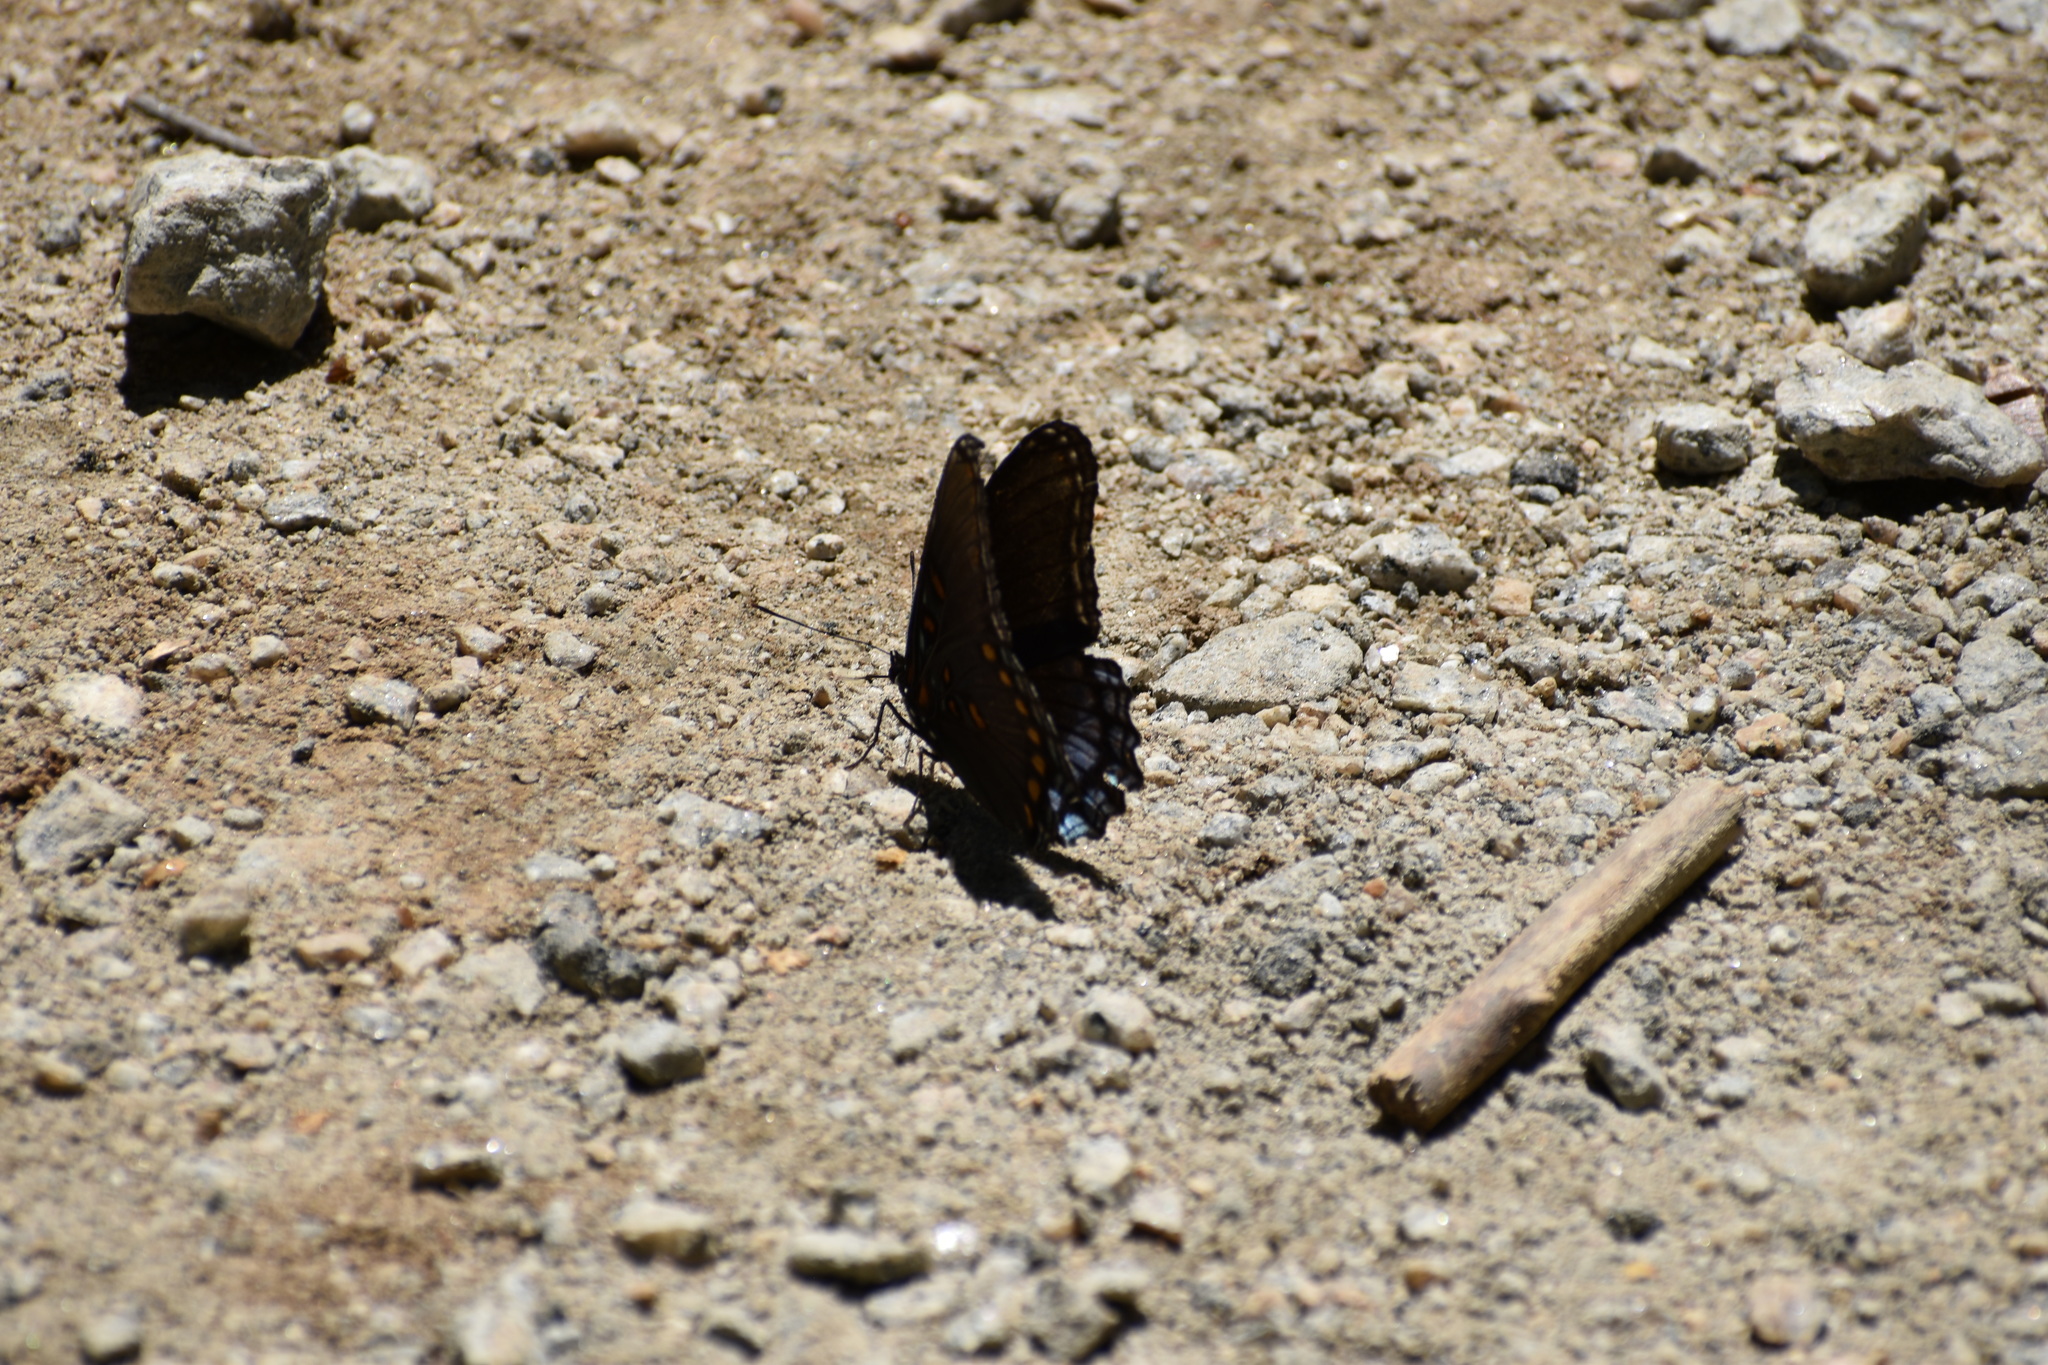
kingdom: Animalia
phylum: Arthropoda
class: Insecta
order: Lepidoptera
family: Nymphalidae
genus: Limenitis
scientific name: Limenitis astyanax
